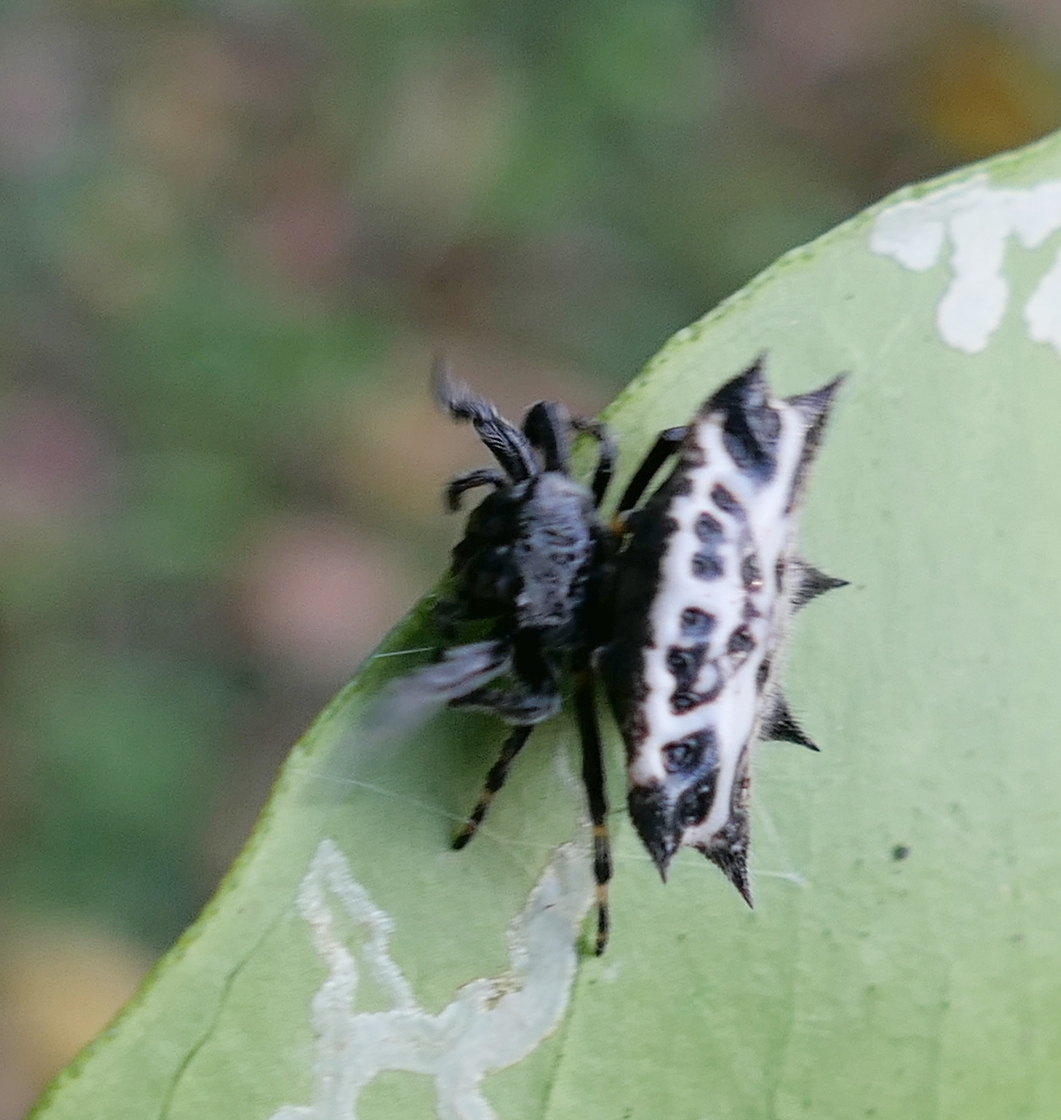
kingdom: Animalia
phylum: Arthropoda
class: Arachnida
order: Araneae
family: Araneidae
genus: Gasteracantha
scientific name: Gasteracantha cancriformis
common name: Orb weavers
